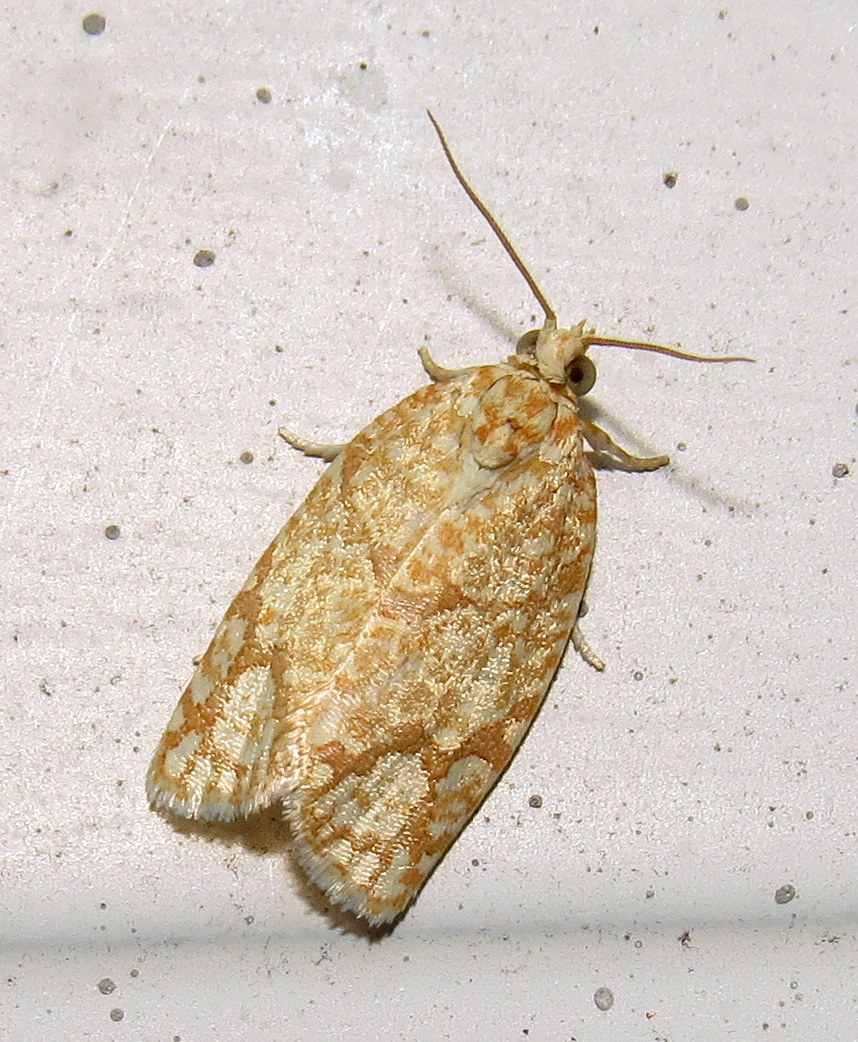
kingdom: Animalia
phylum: Arthropoda
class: Insecta
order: Lepidoptera
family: Tortricidae
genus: Argyrotaenia
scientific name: Argyrotaenia quercifoliana
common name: Yellow-winged oak leafroller moth
